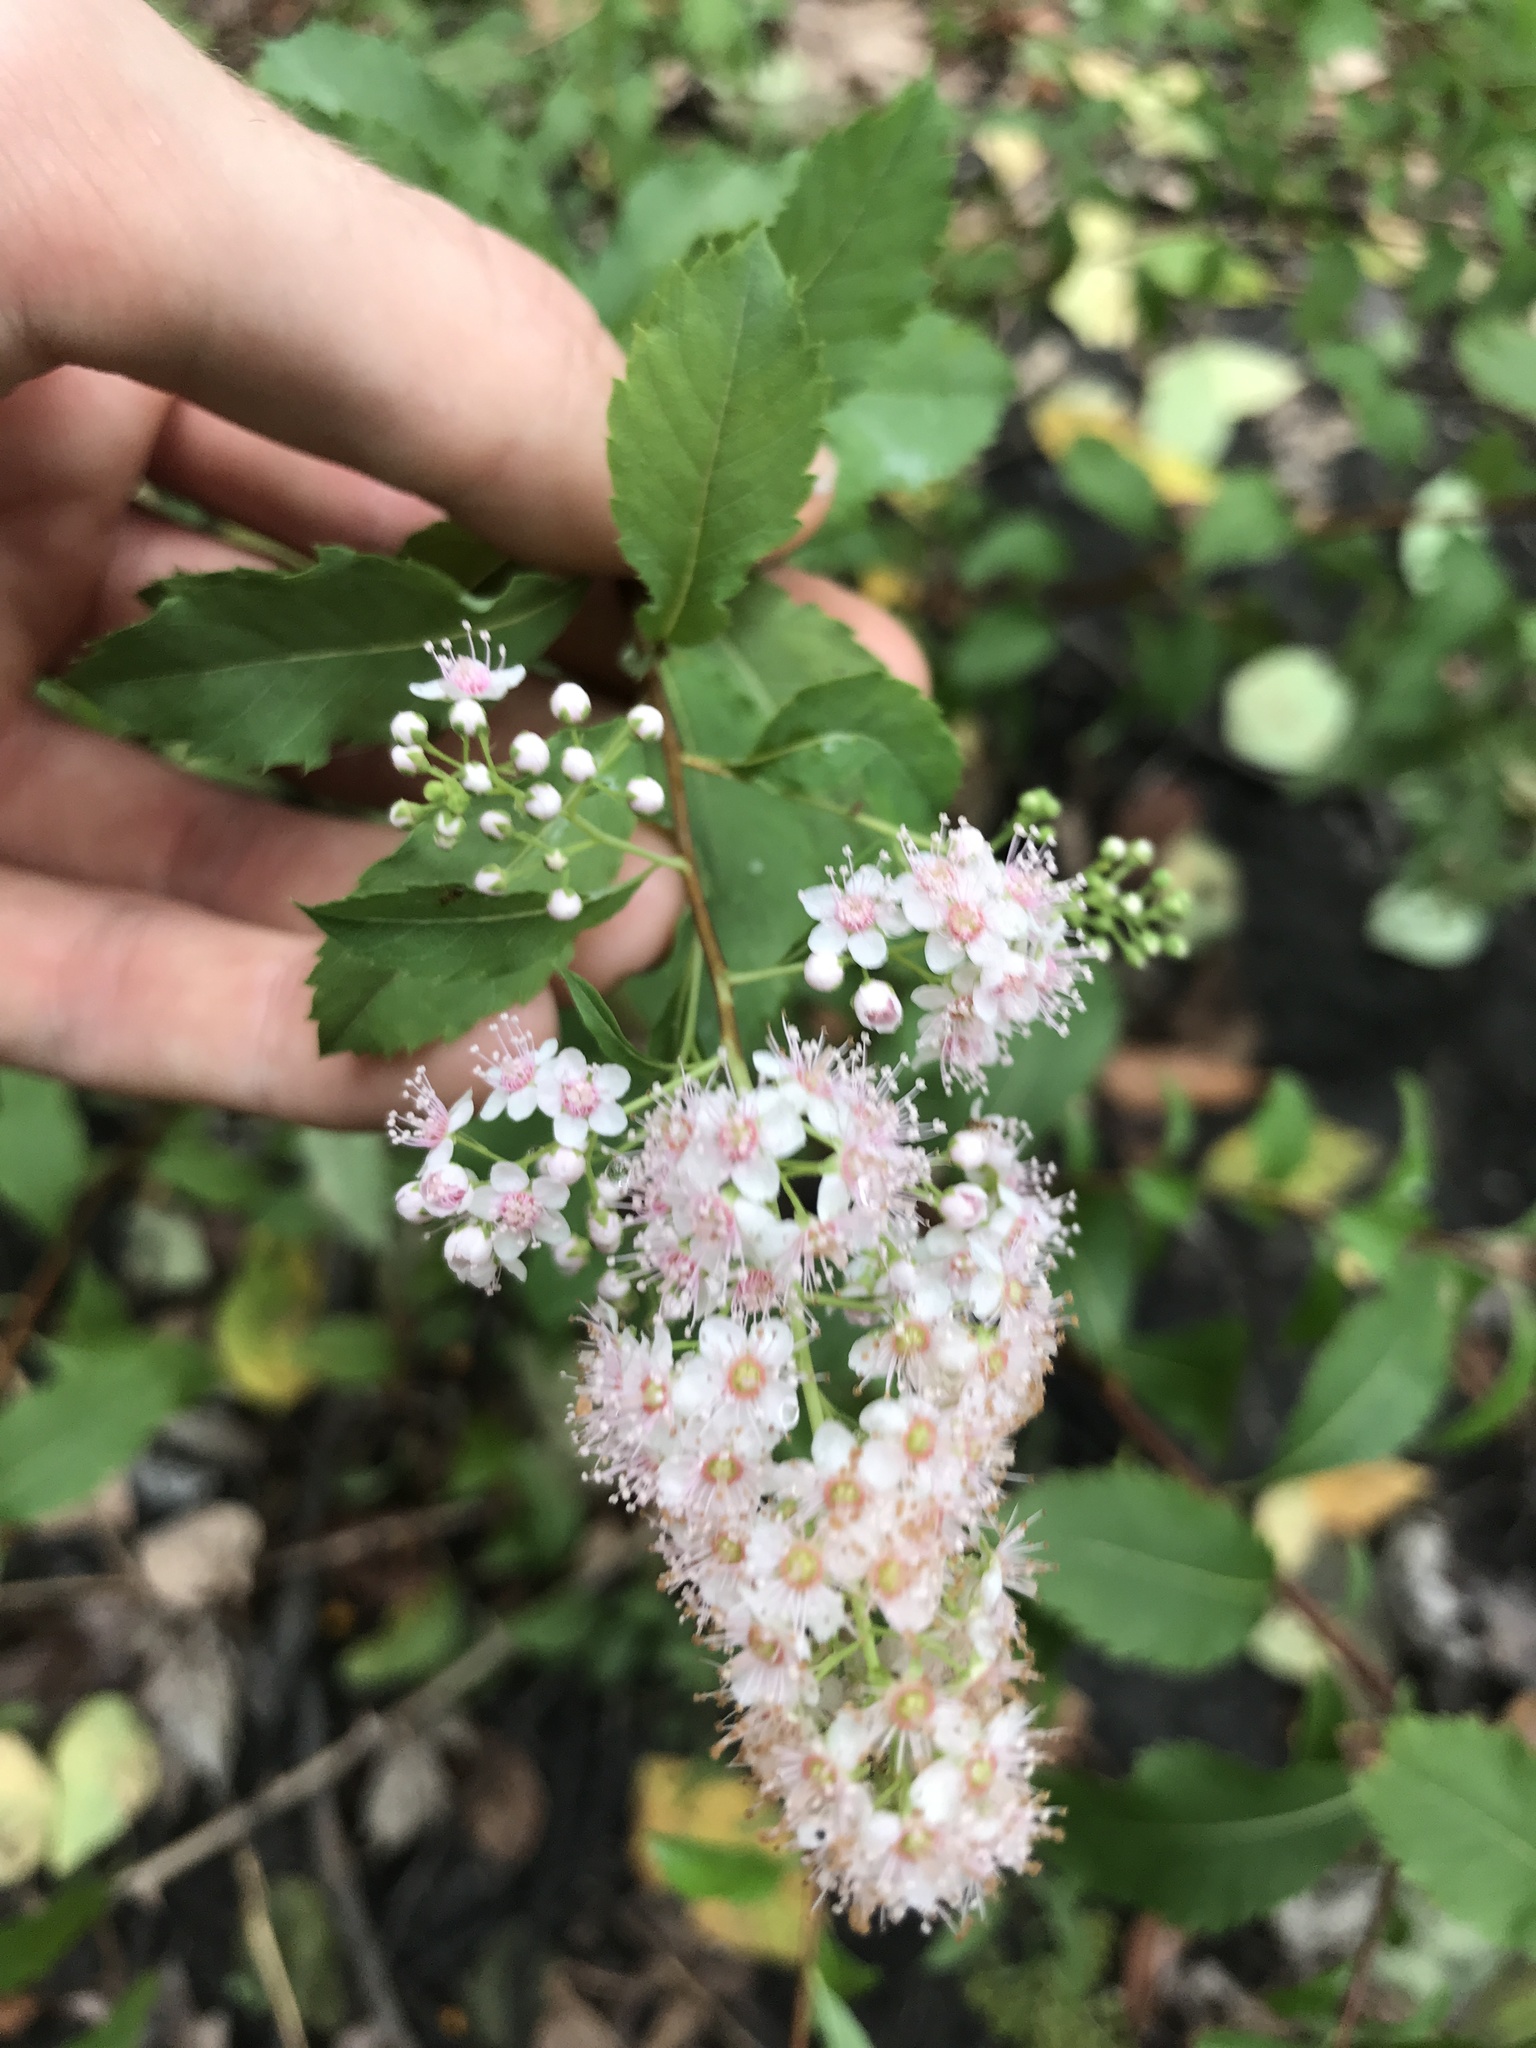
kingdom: Plantae
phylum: Tracheophyta
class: Magnoliopsida
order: Rosales
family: Rosaceae
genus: Spiraea
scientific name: Spiraea alba
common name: Pale bridewort
